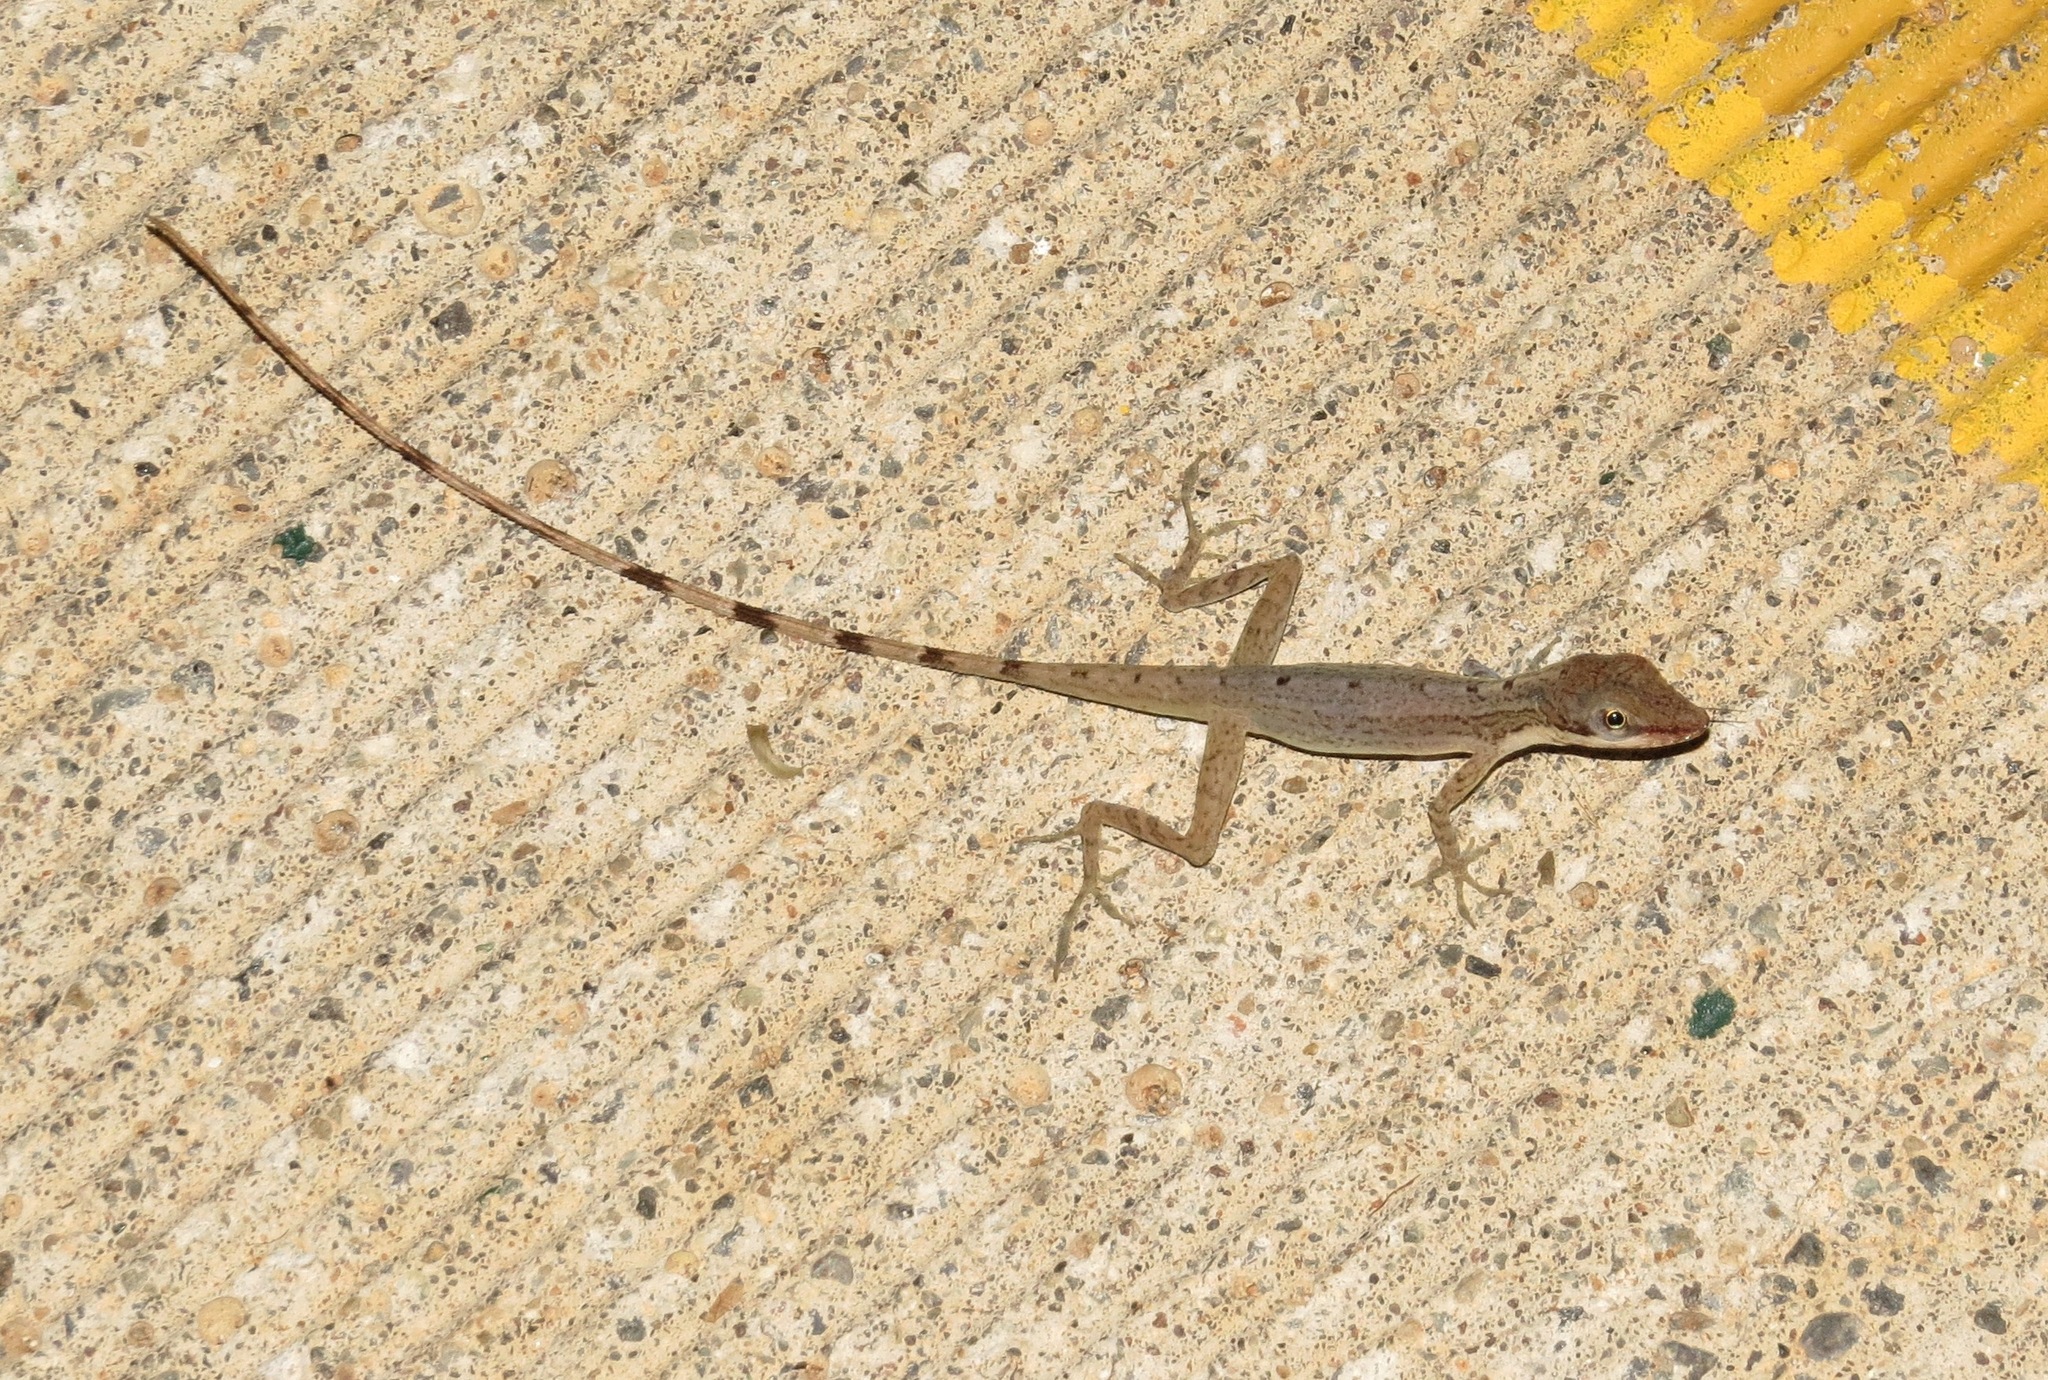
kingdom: Animalia
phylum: Chordata
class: Squamata
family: Dactyloidae
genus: Anolis
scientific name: Anolis limifrons
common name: Border anole
